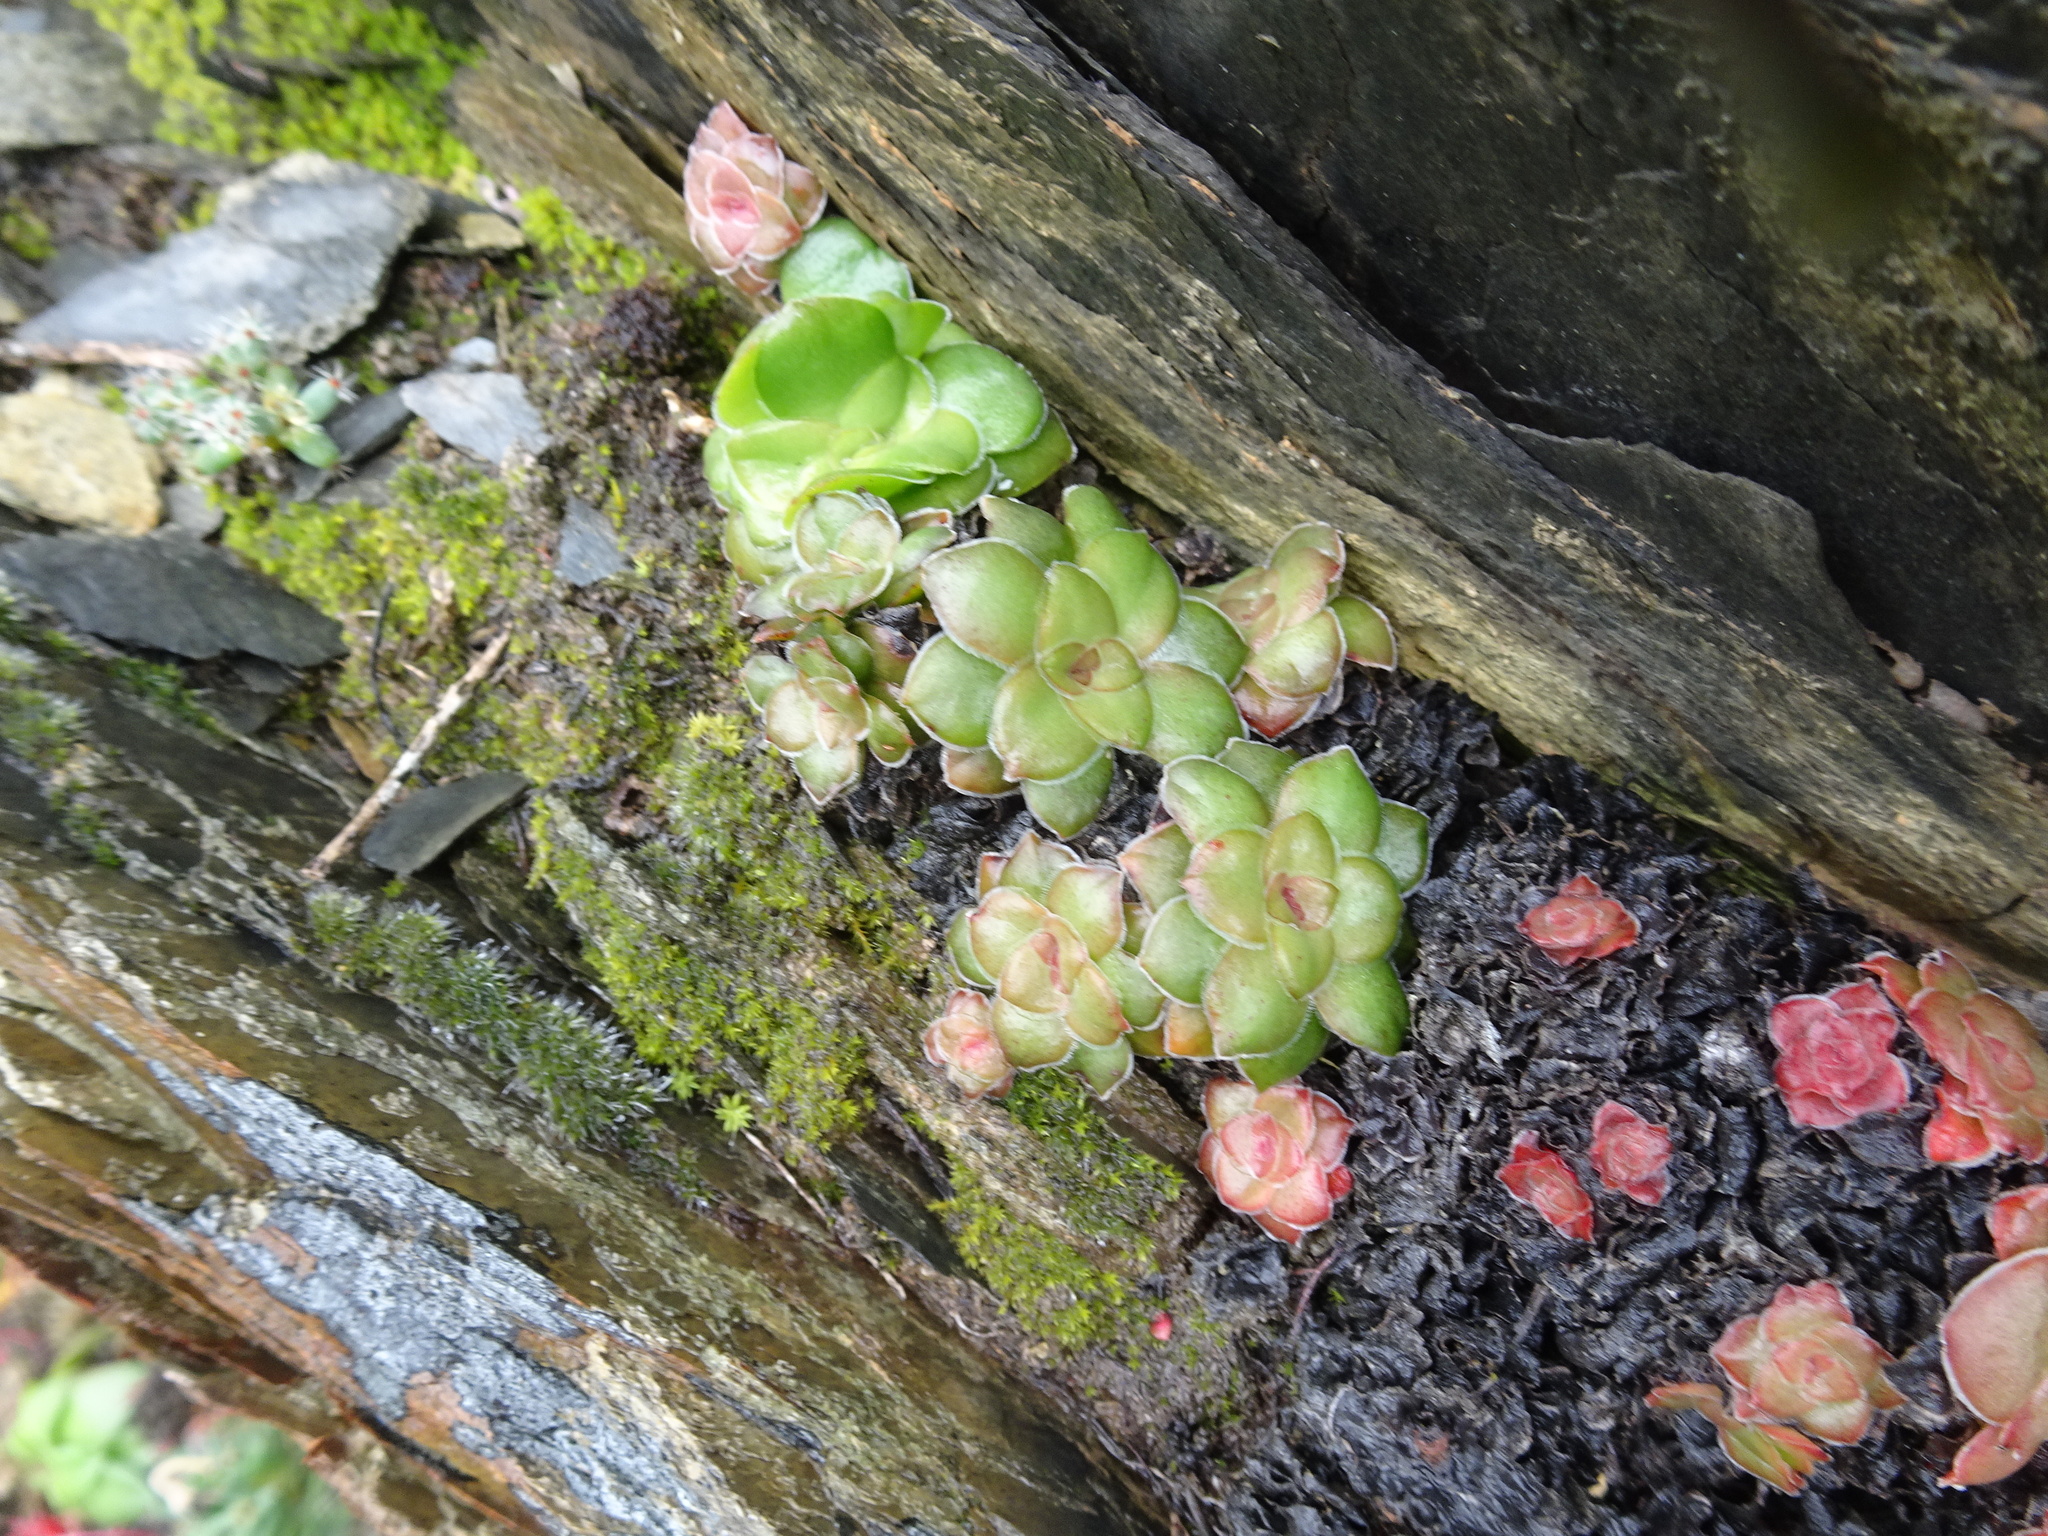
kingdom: Plantae
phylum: Tracheophyta
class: Magnoliopsida
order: Saxifragales
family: Crassulaceae
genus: Crassula
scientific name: Crassula orbicularis
